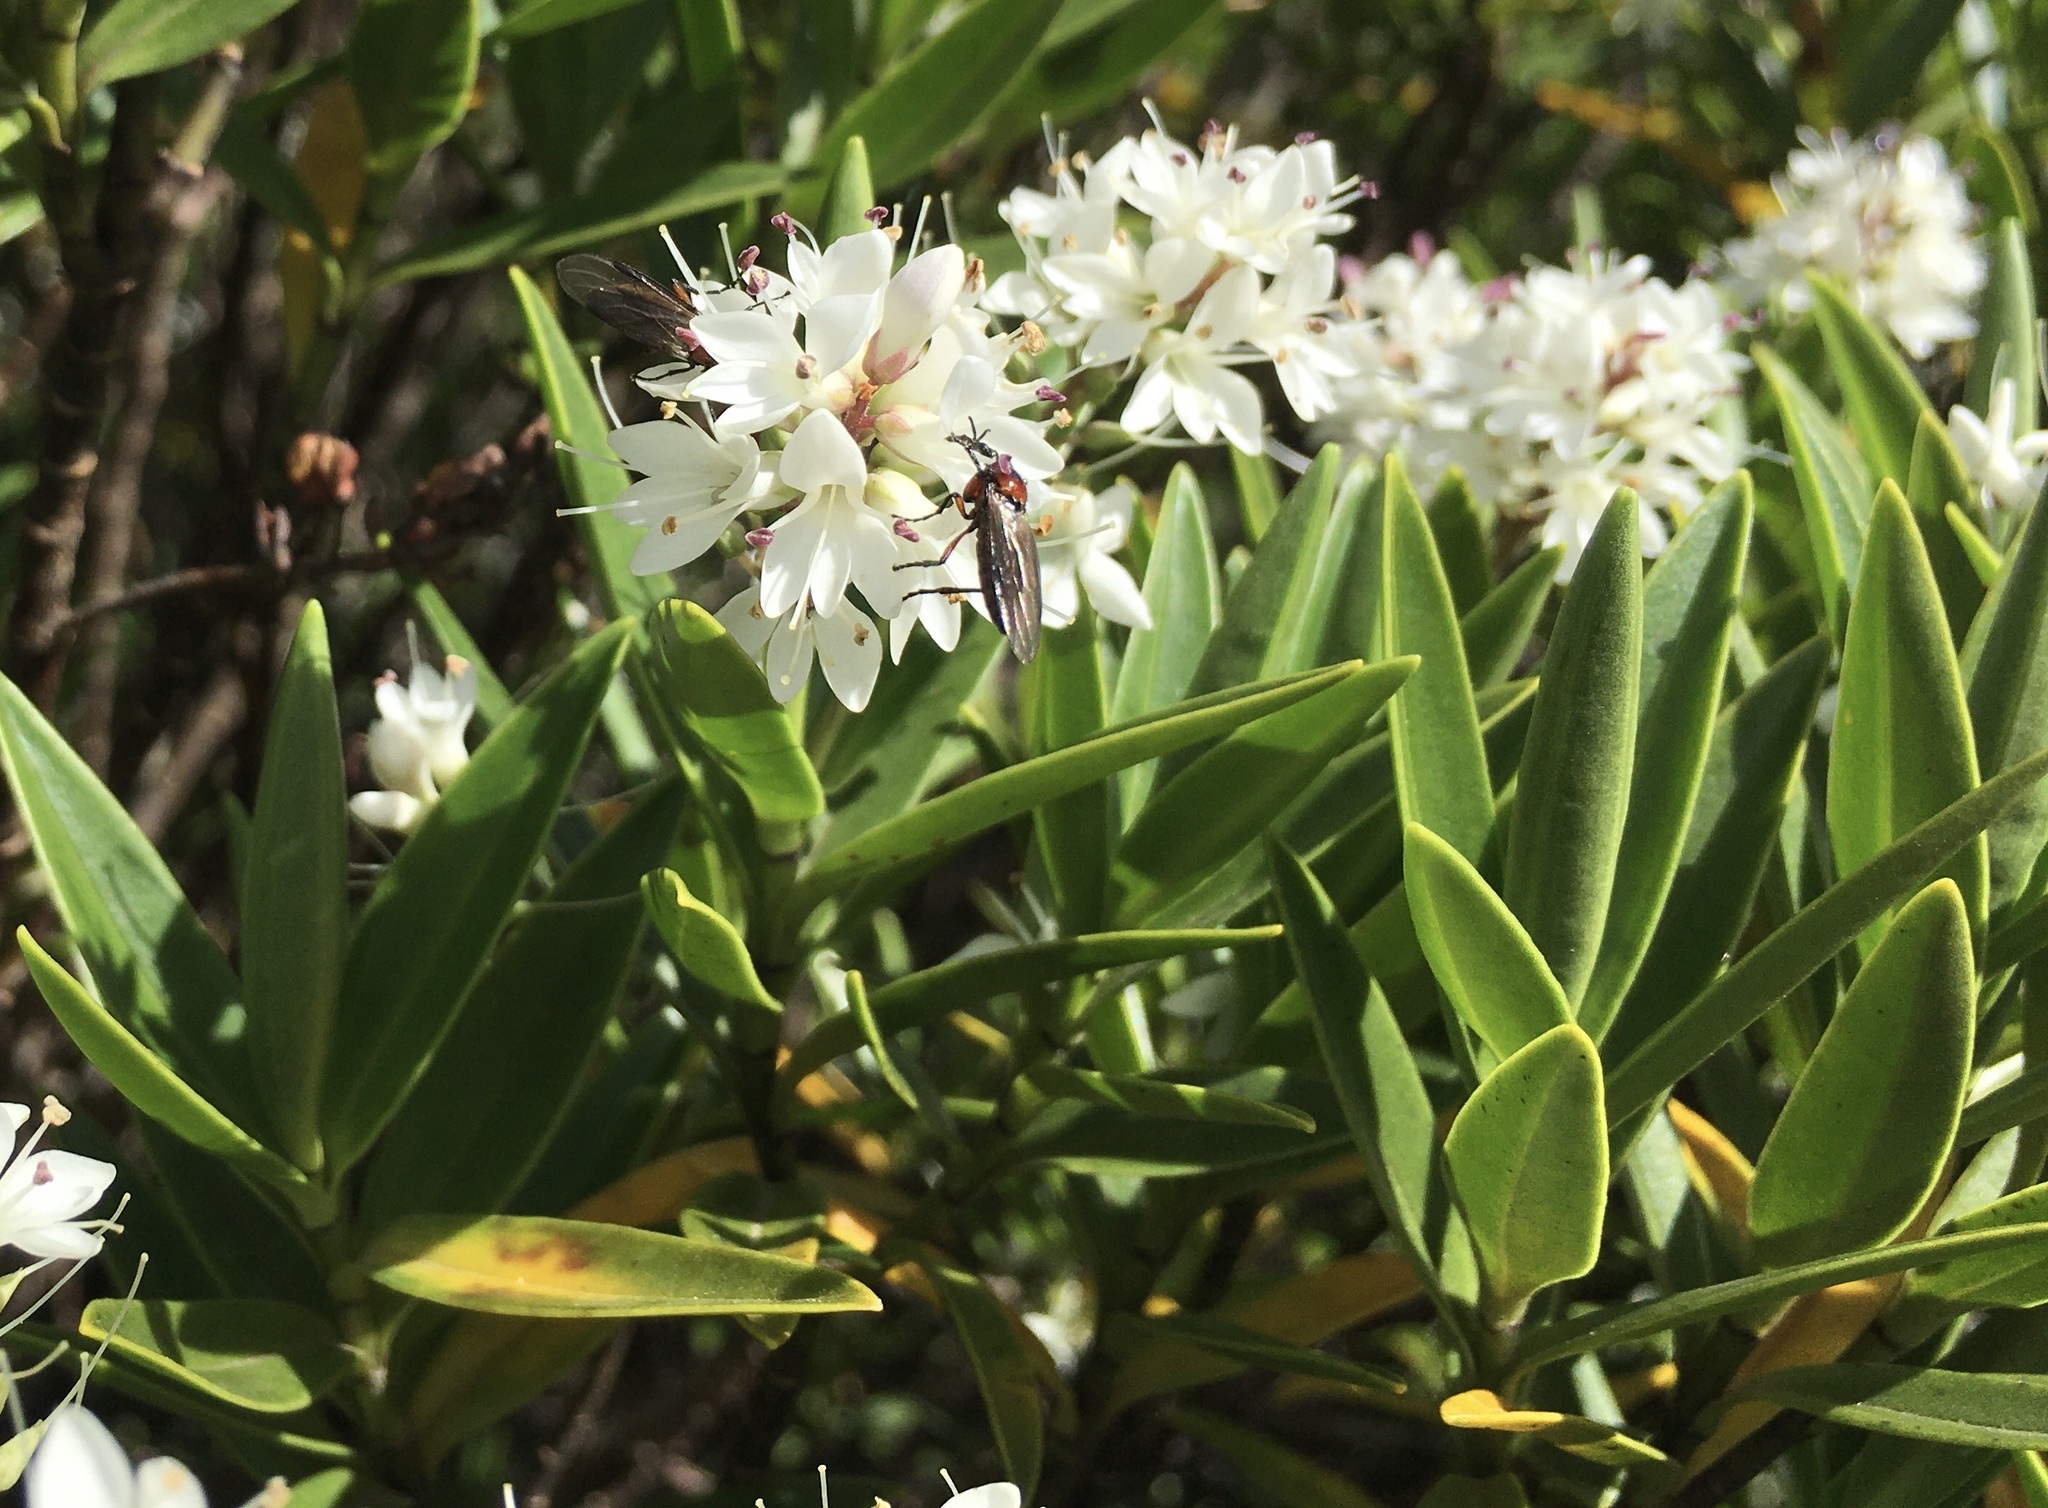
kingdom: Animalia
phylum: Arthropoda
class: Insecta
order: Diptera
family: Bibionidae
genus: Dilophus
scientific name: Dilophus nigrostigma
